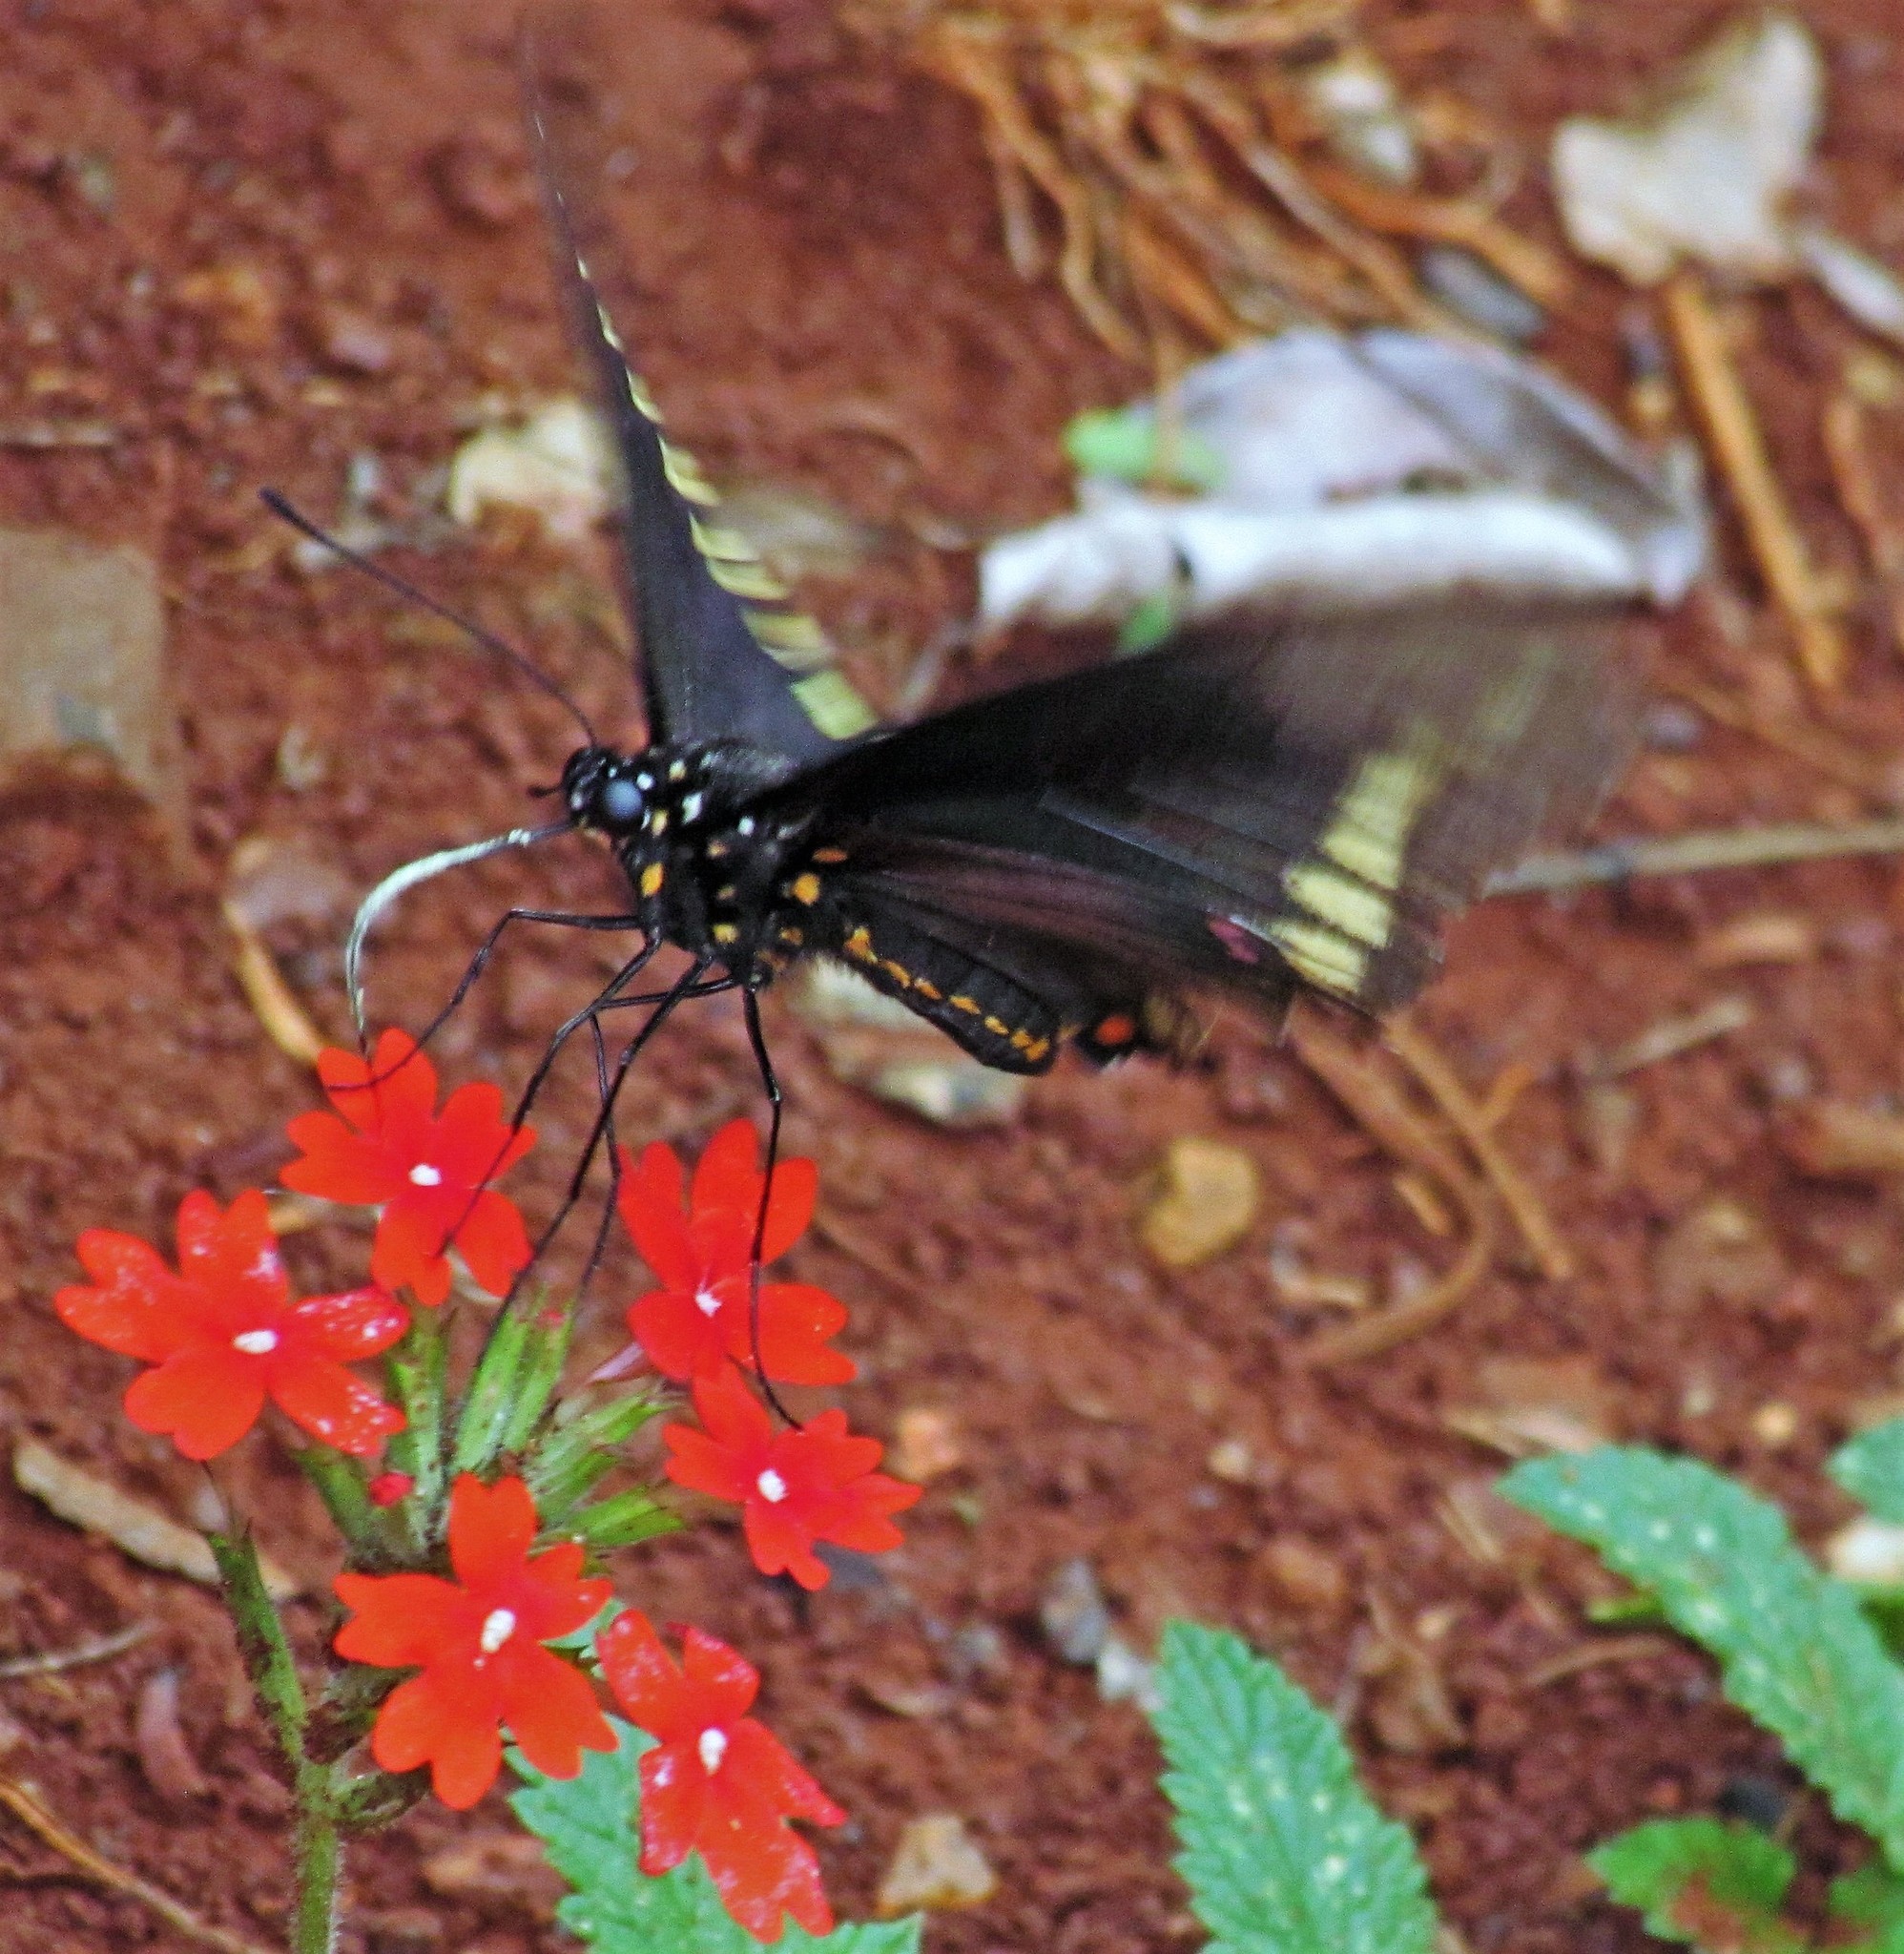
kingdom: Animalia
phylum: Arthropoda
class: Insecta
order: Lepidoptera
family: Papilionidae
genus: Battus
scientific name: Battus polydamas
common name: Polydamas swallowtail
